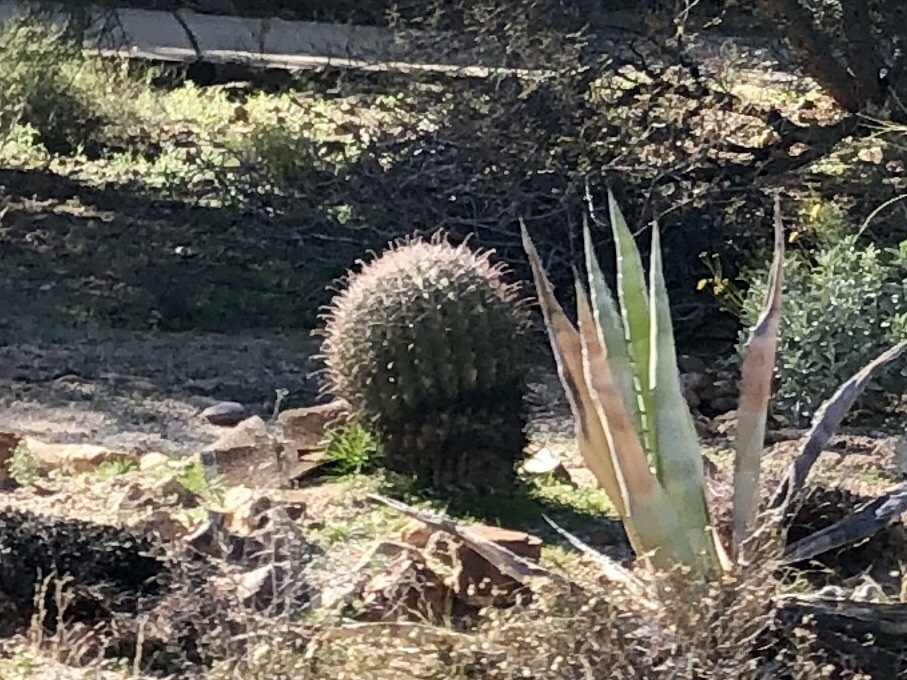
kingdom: Plantae
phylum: Tracheophyta
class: Magnoliopsida
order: Caryophyllales
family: Cactaceae
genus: Ferocactus
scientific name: Ferocactus wislizeni
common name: Candy barrel cactus
